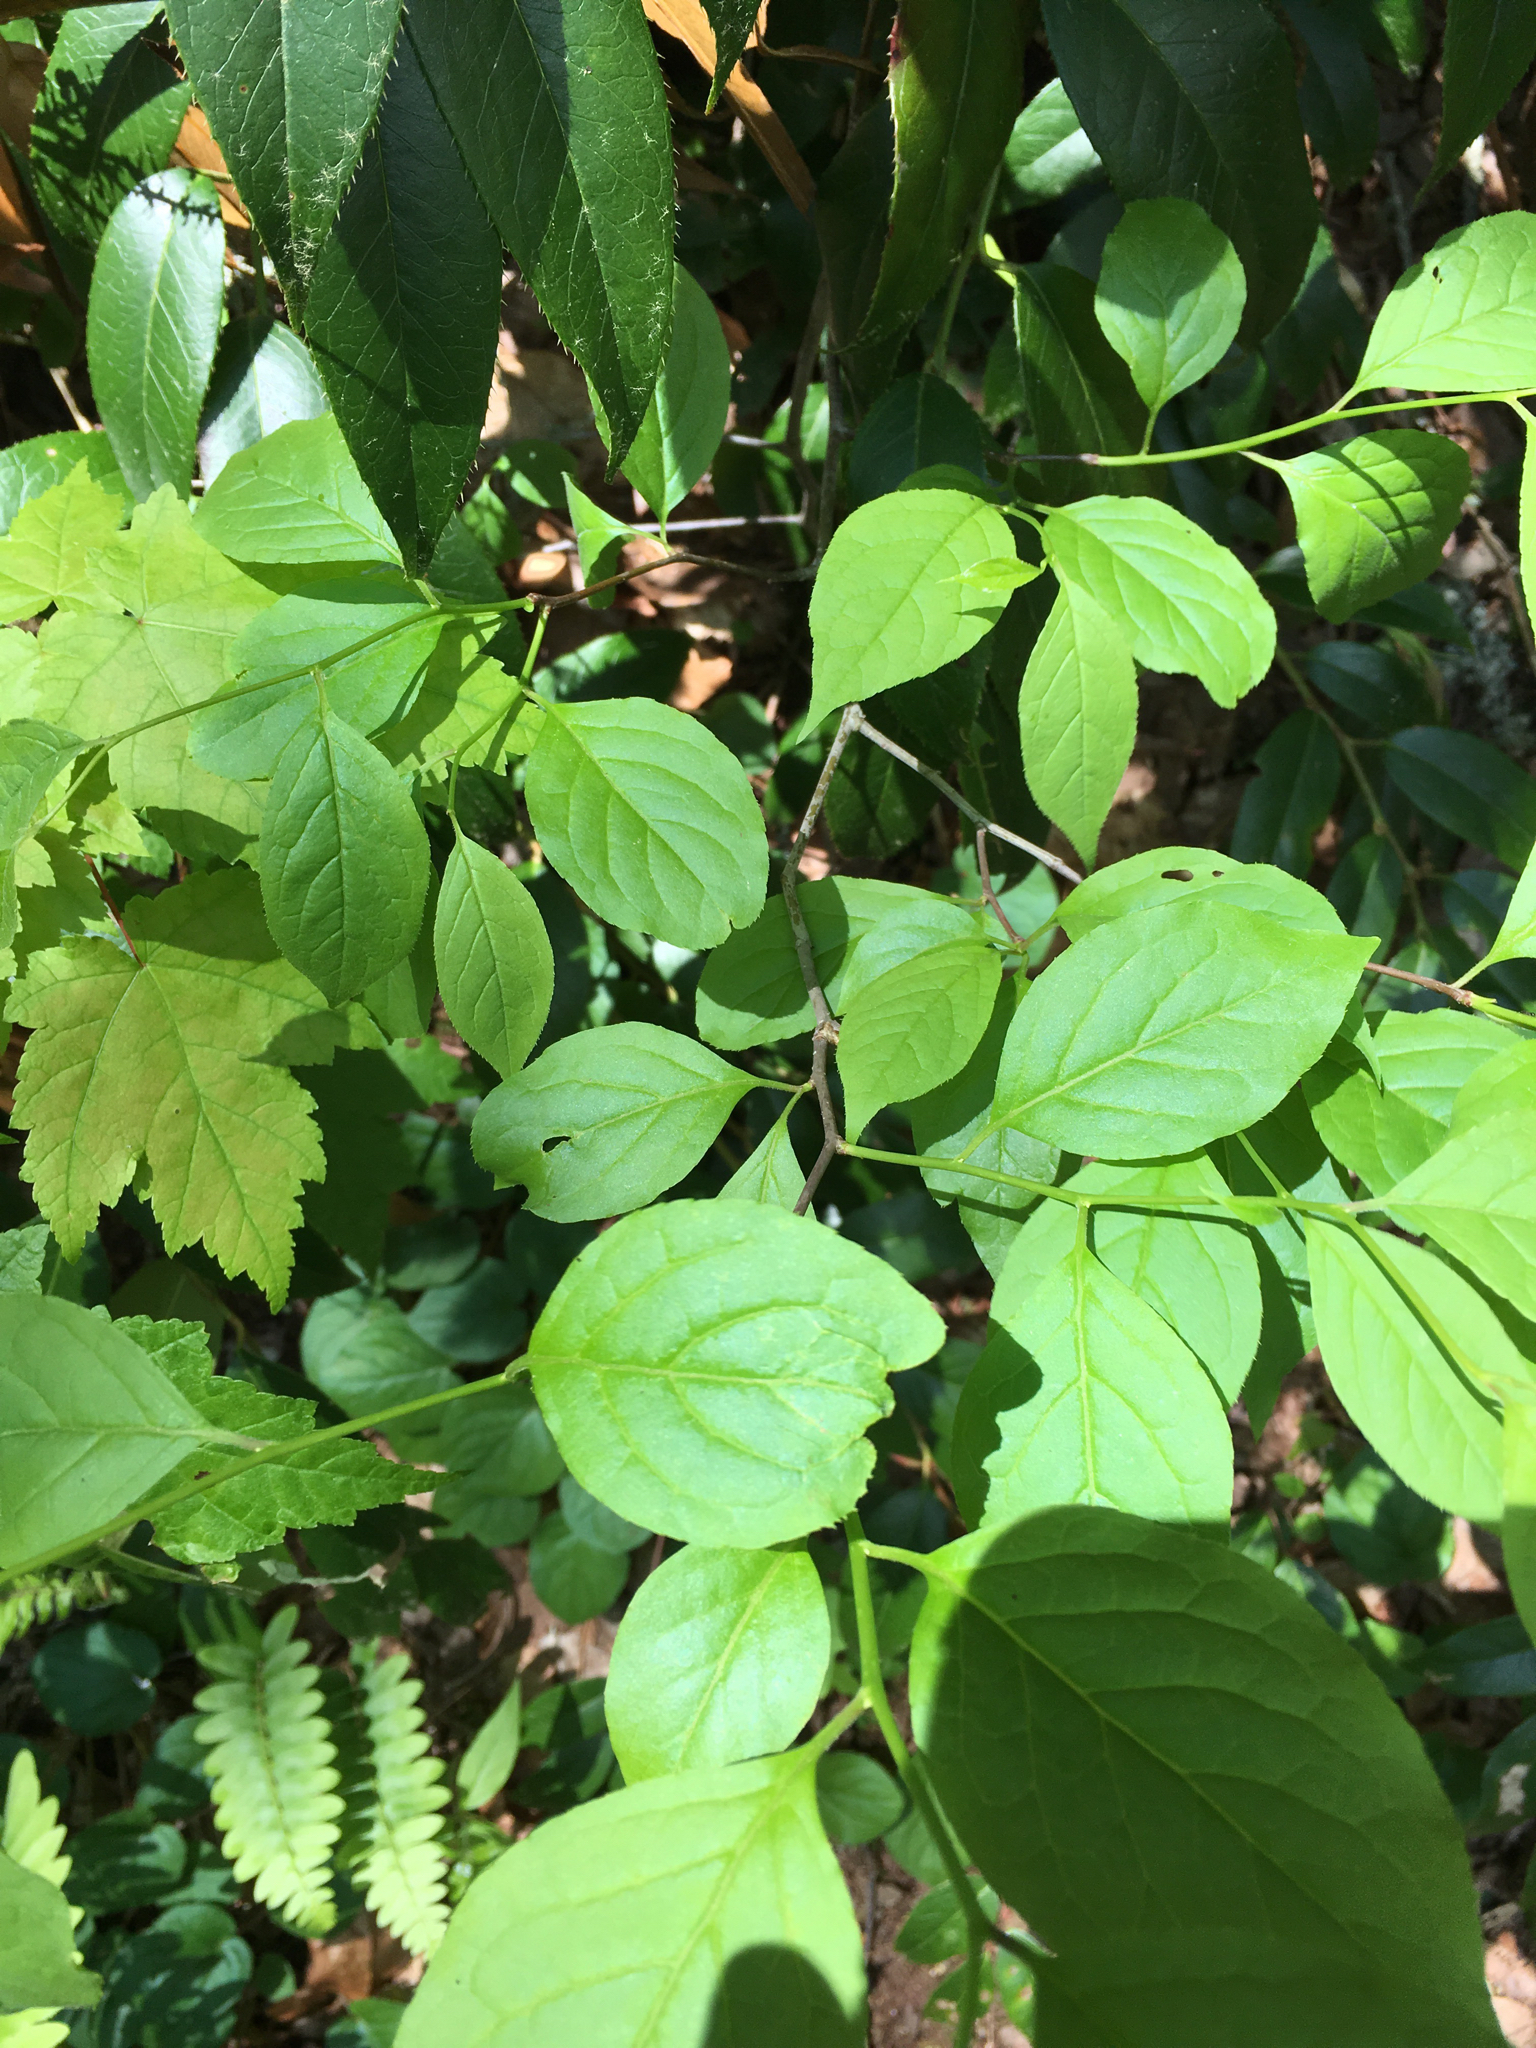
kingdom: Plantae
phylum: Tracheophyta
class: Magnoliopsida
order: Aquifoliales
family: Aquifoliaceae
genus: Ilex
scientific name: Ilex montana
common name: Mountain winterberry
